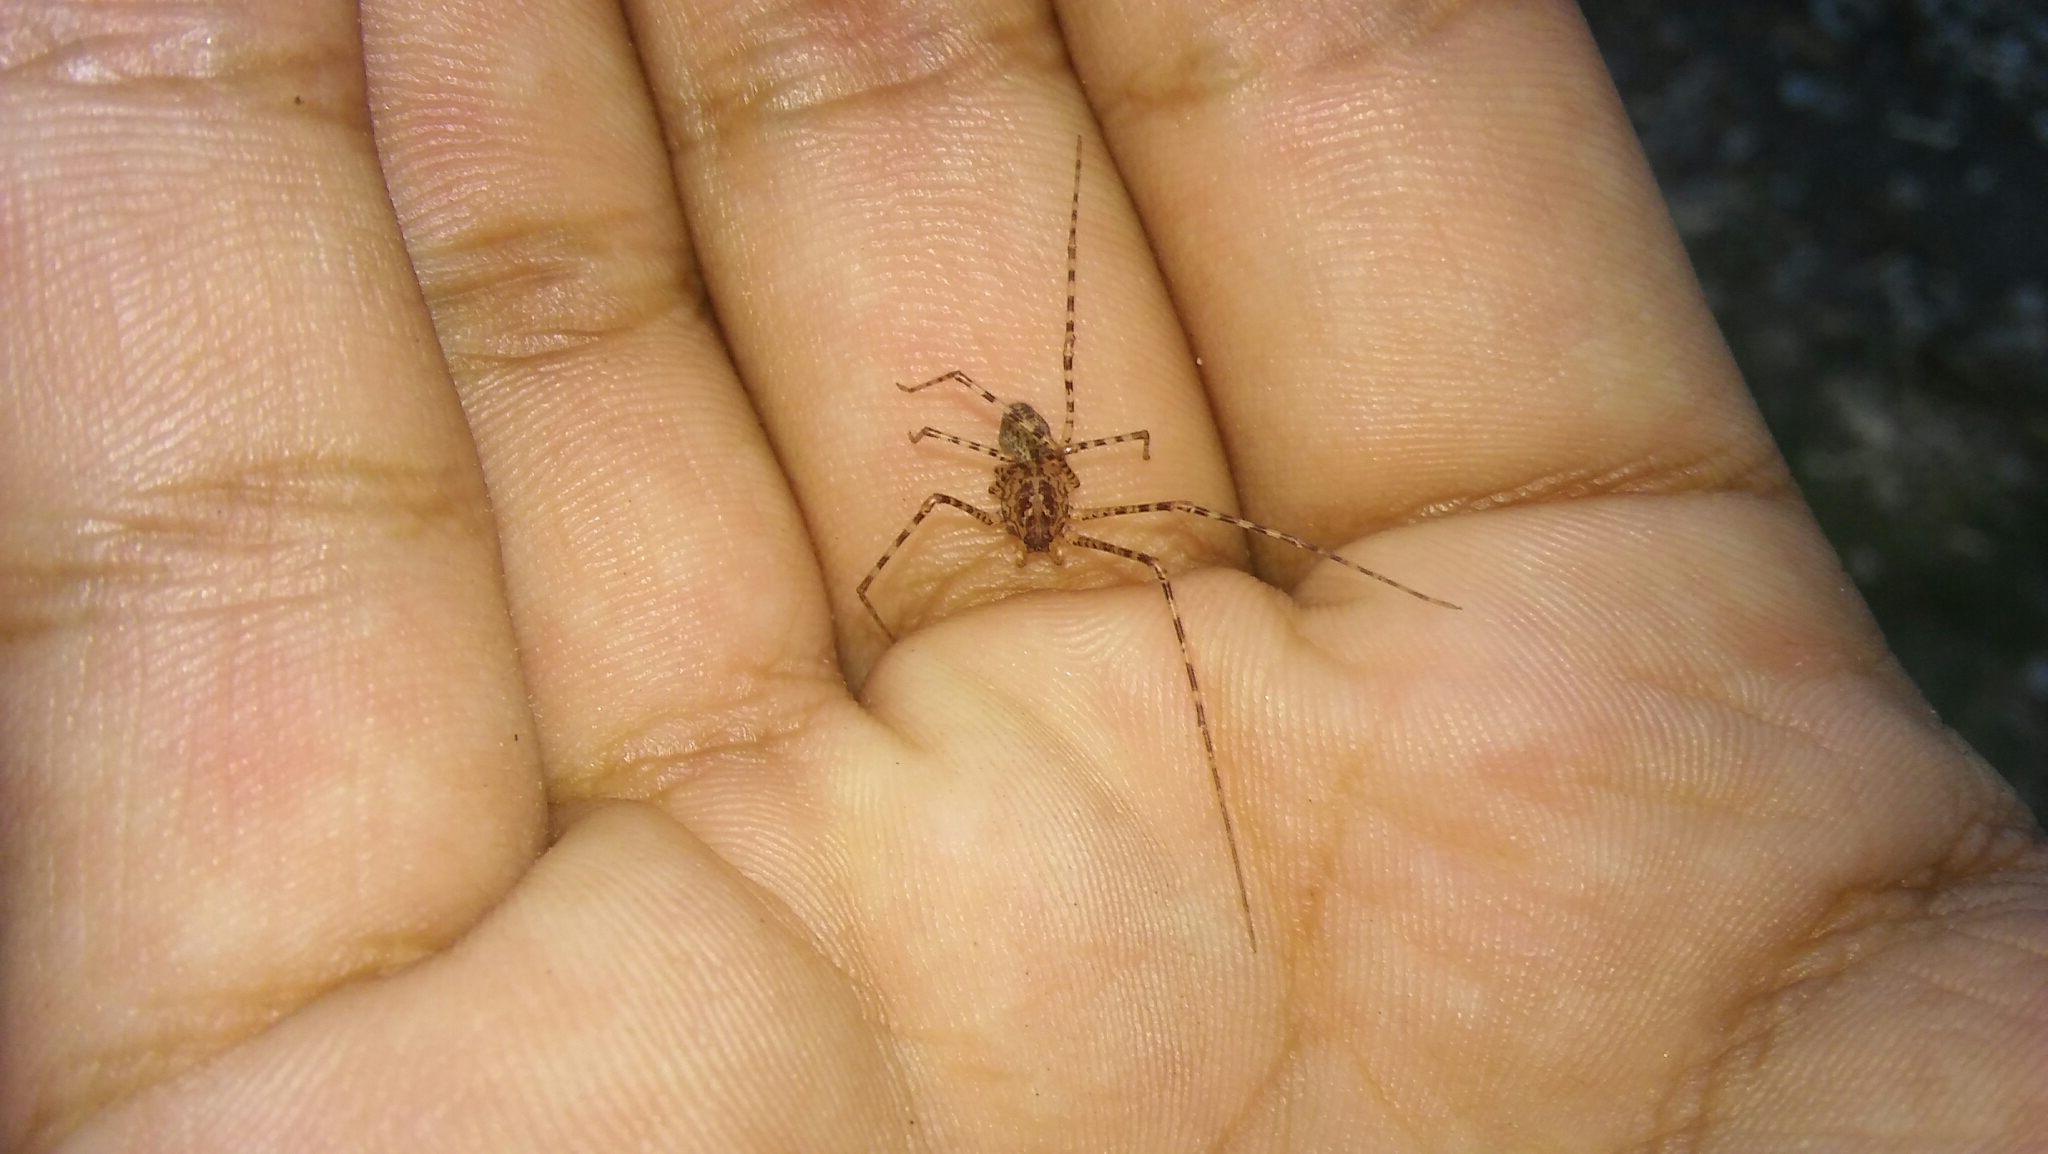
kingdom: Animalia
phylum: Arthropoda
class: Arachnida
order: Araneae
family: Scytodidae
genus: Scytodes
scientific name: Scytodes globula
